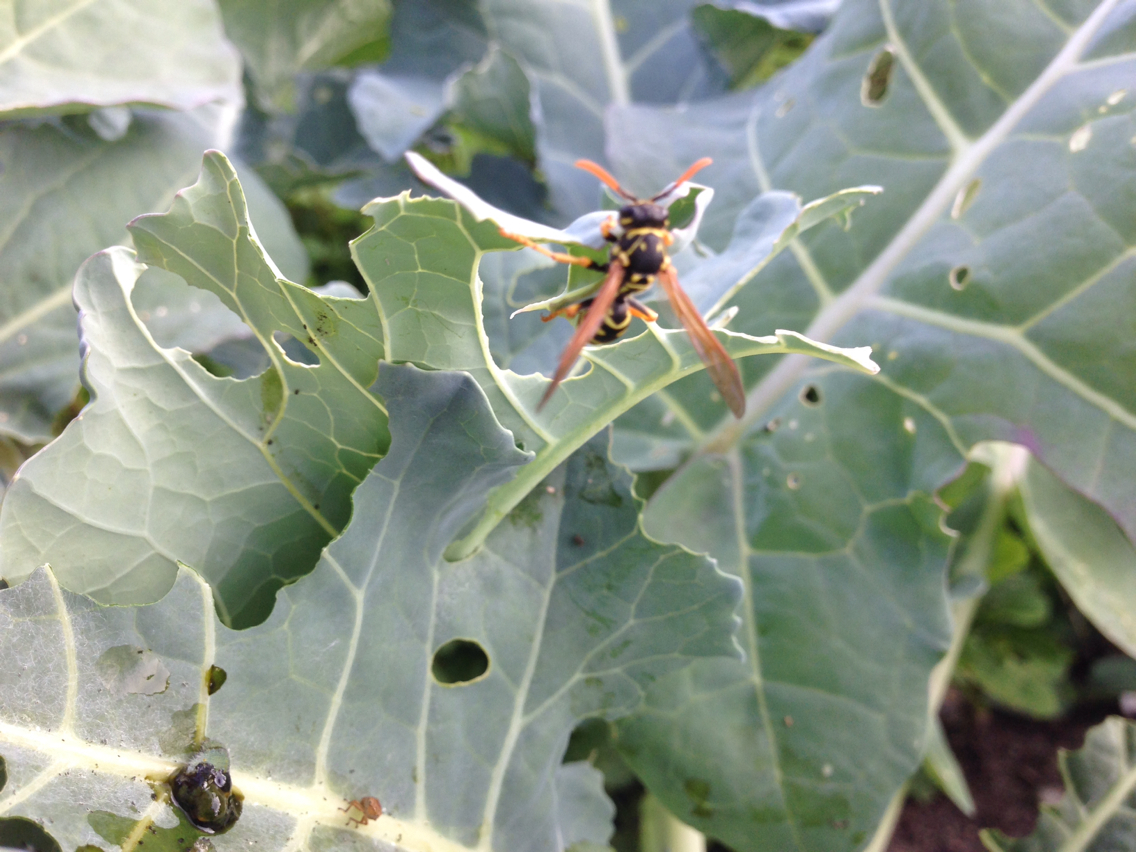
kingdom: Animalia
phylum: Arthropoda
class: Insecta
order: Hymenoptera
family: Eumenidae
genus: Polistes
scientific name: Polistes dominula
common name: Paper wasp
